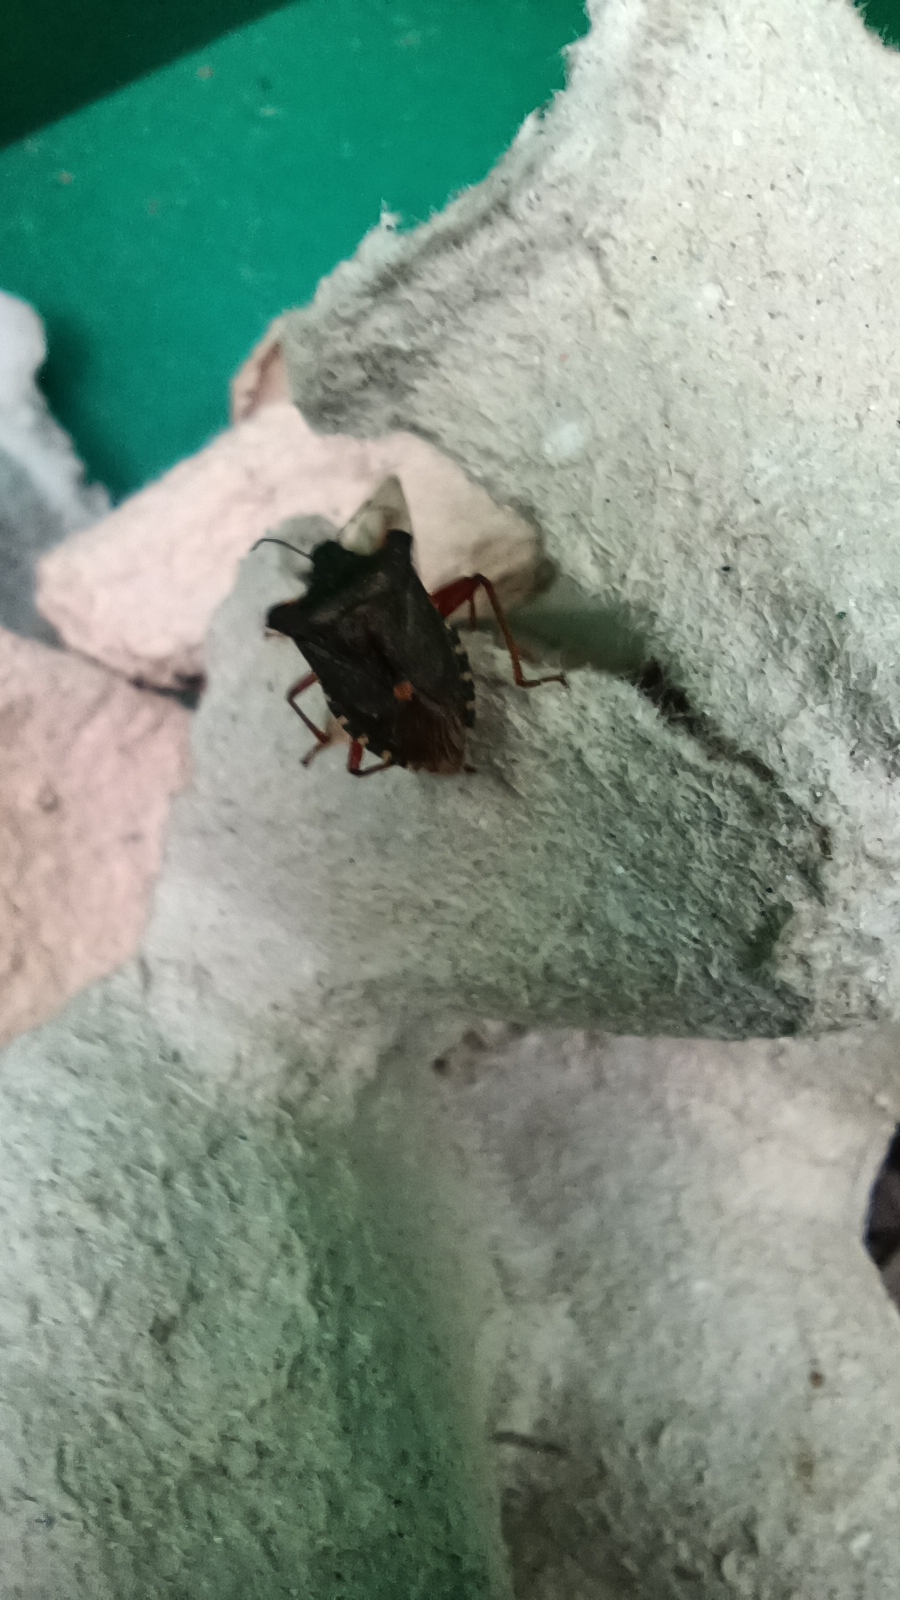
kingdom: Animalia
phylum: Arthropoda
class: Insecta
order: Hemiptera
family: Pentatomidae
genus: Pentatoma
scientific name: Pentatoma rufipes
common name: Forest bug
